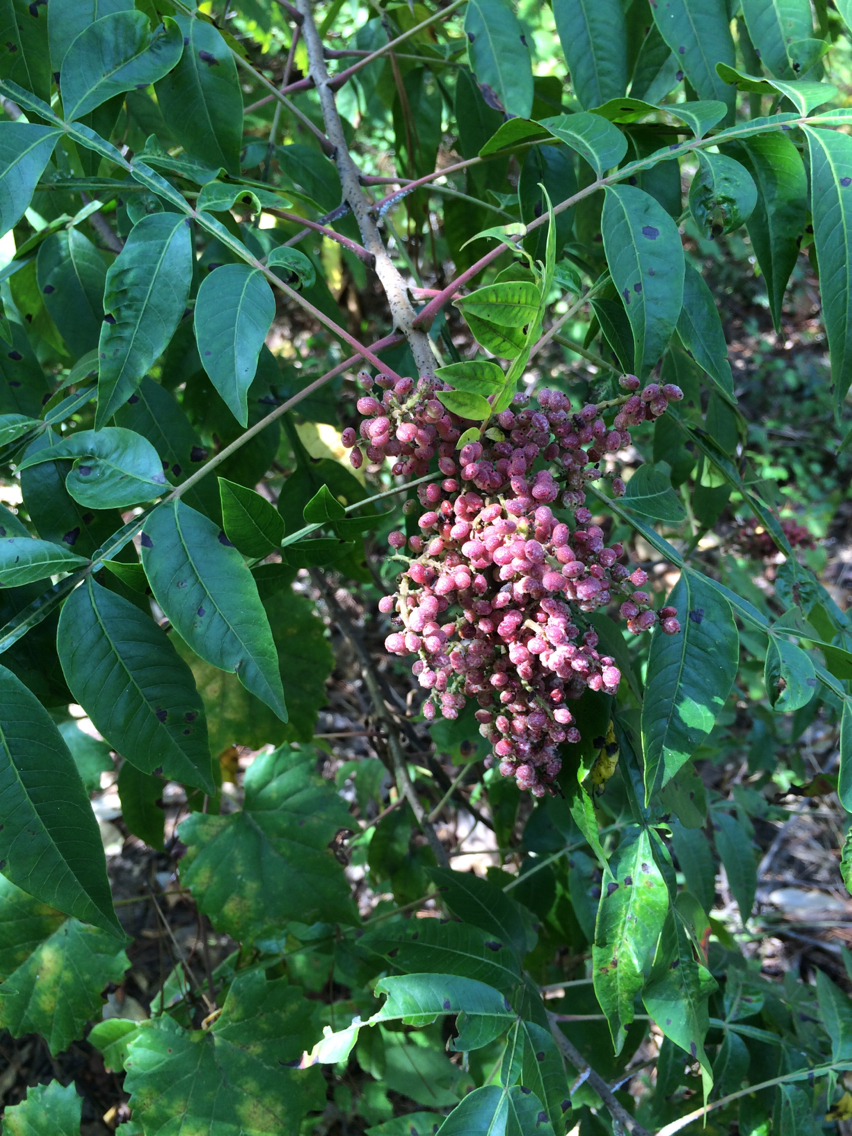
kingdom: Plantae
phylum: Tracheophyta
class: Magnoliopsida
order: Sapindales
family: Anacardiaceae
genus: Rhus
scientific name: Rhus copallina
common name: Shining sumac
